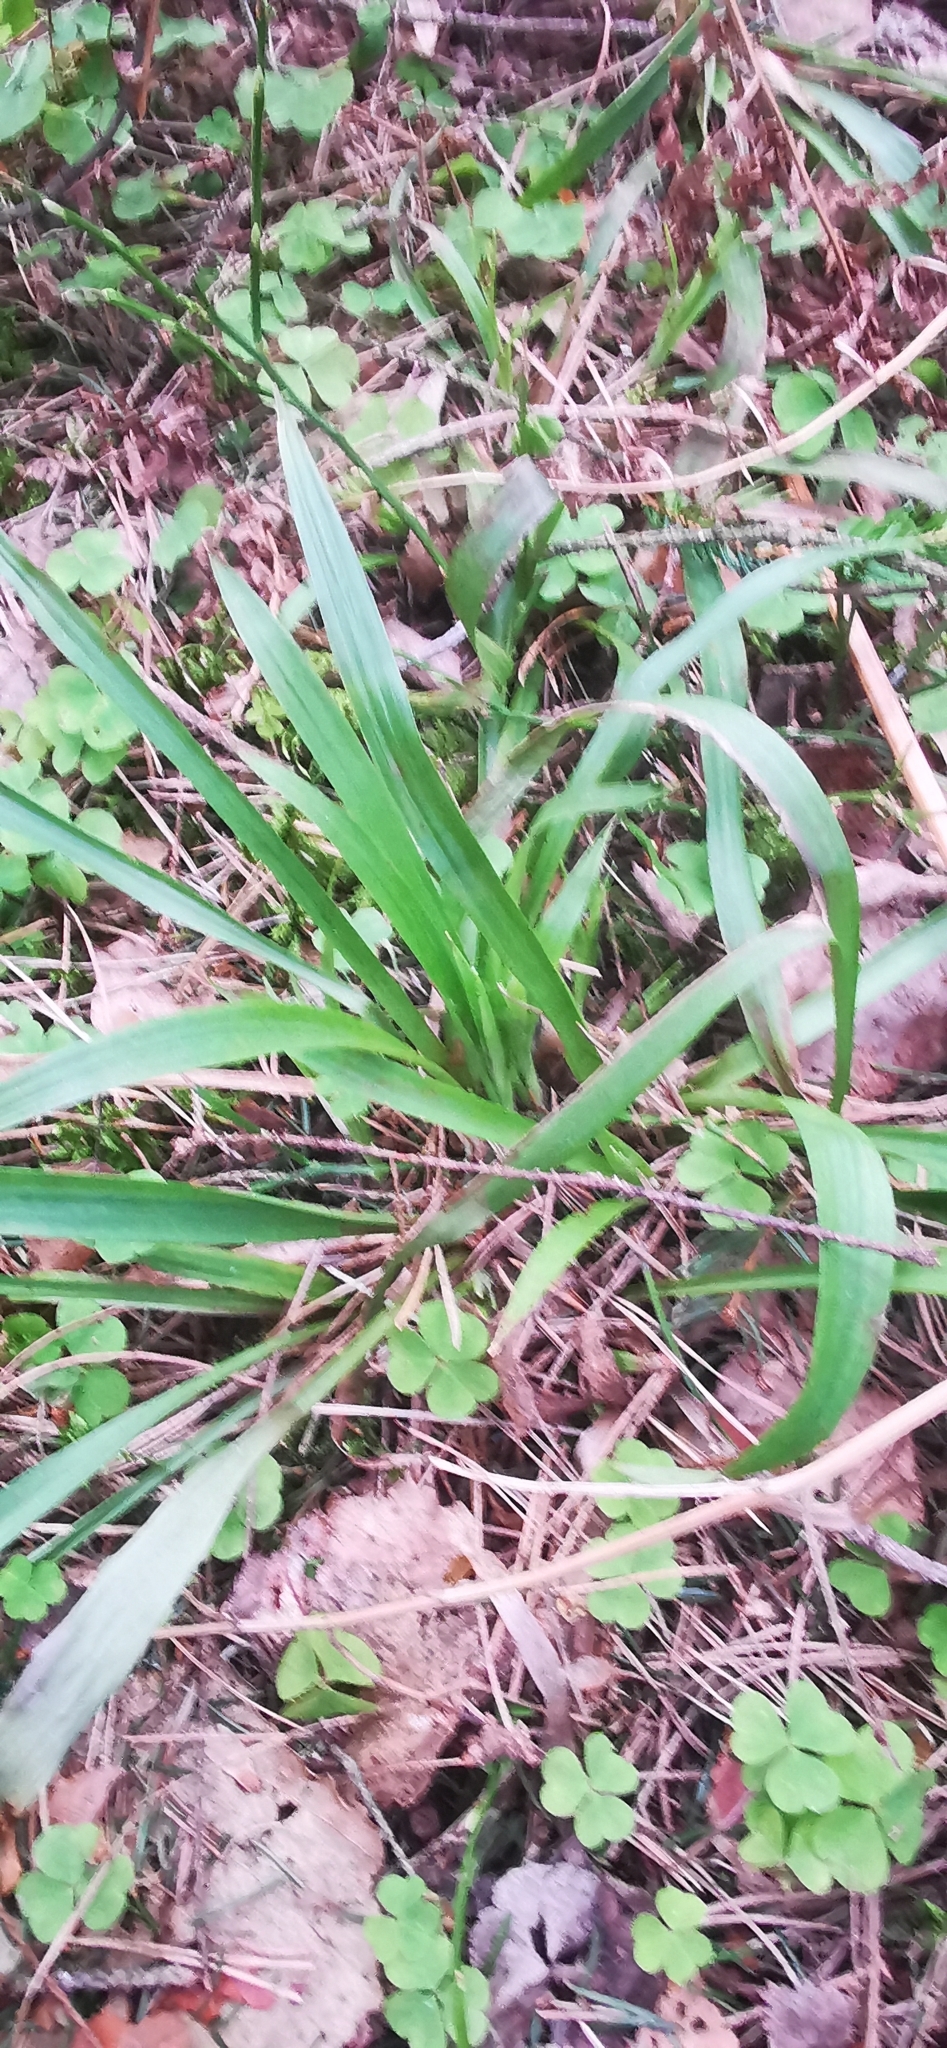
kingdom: Plantae
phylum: Tracheophyta
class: Liliopsida
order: Poales
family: Juncaceae
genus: Luzula
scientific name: Luzula pilosa
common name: Hairy wood-rush
